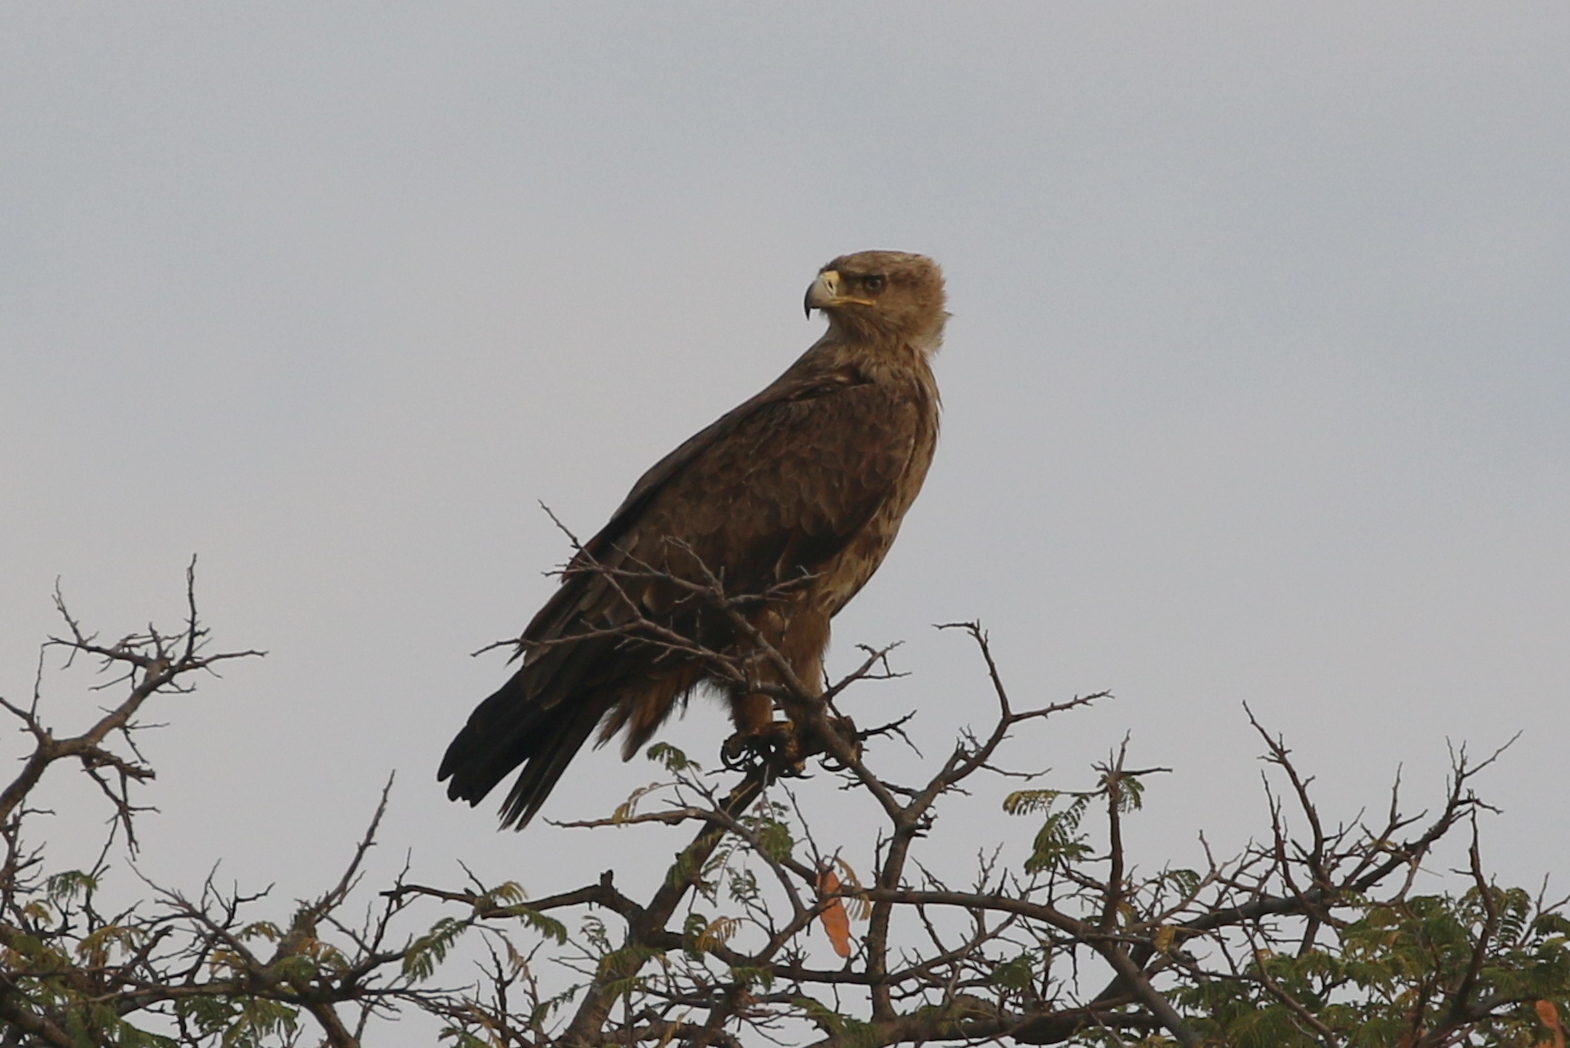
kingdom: Animalia
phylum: Chordata
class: Aves
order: Accipitriformes
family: Accipitridae
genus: Aquila
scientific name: Aquila rapax
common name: Tawny eagle
